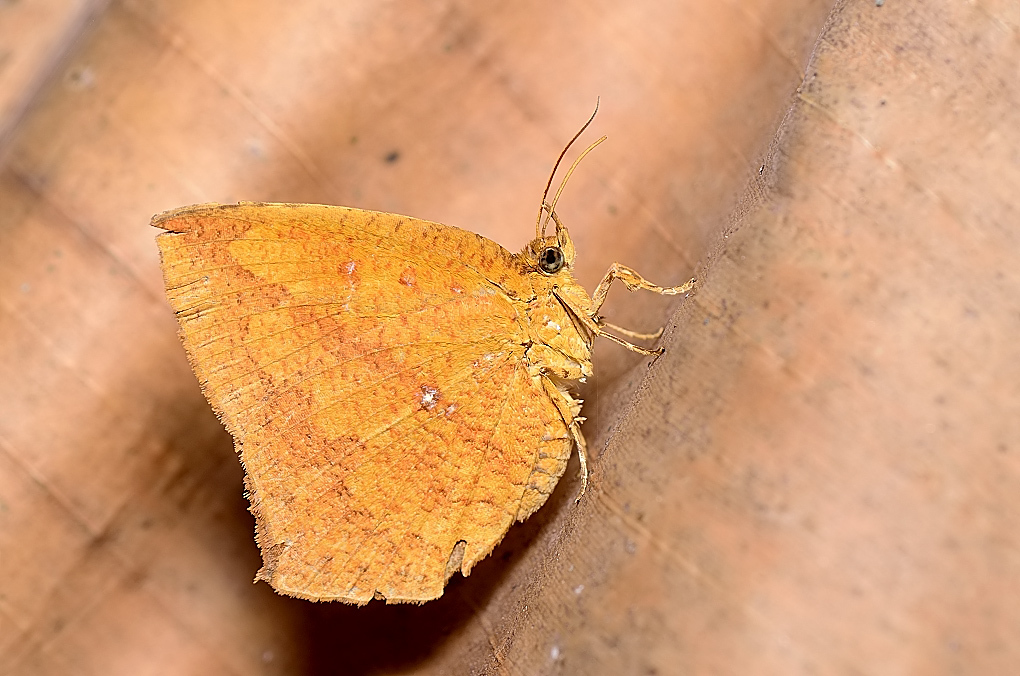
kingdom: Animalia
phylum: Arthropoda
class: Insecta
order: Lepidoptera
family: Callidulidae
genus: Tetragonus
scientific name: Tetragonus catamitus
